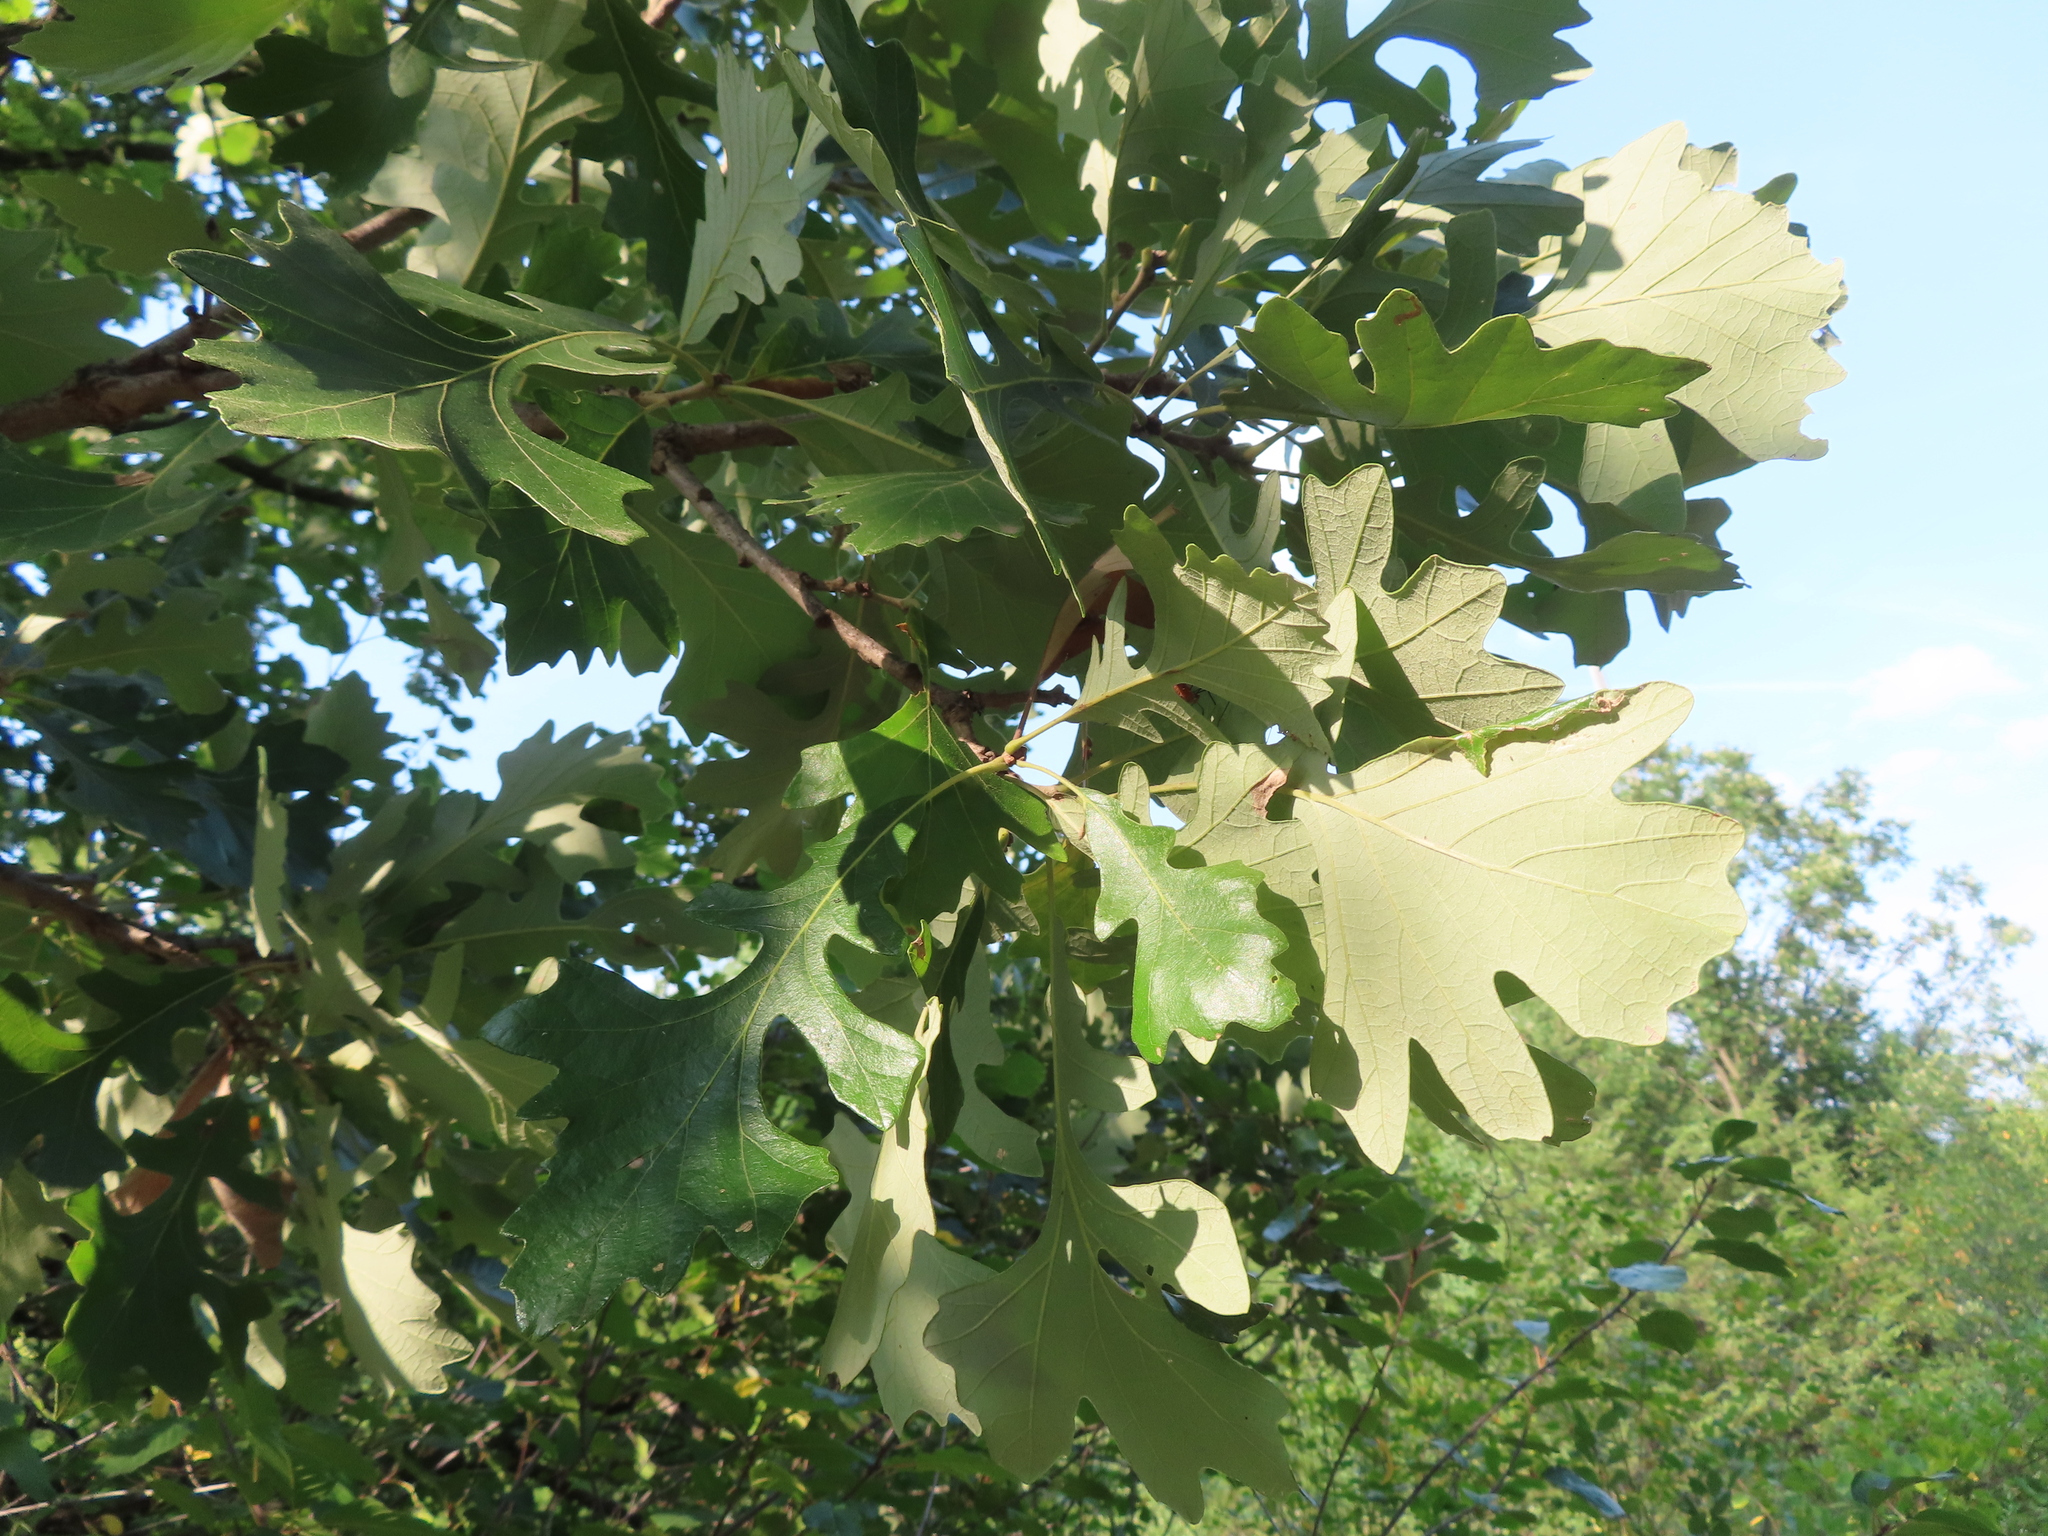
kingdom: Plantae
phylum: Tracheophyta
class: Magnoliopsida
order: Fagales
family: Fagaceae
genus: Quercus
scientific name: Quercus macrocarpa
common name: Bur oak
